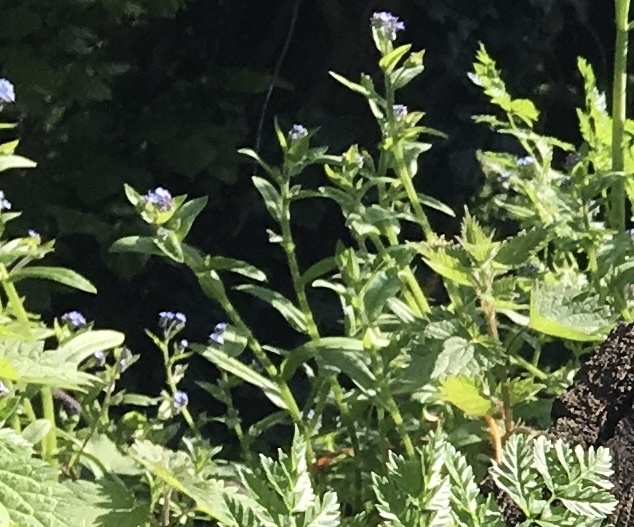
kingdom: Plantae
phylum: Tracheophyta
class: Magnoliopsida
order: Boraginales
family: Boraginaceae
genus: Lycopsis
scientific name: Lycopsis arvensis
